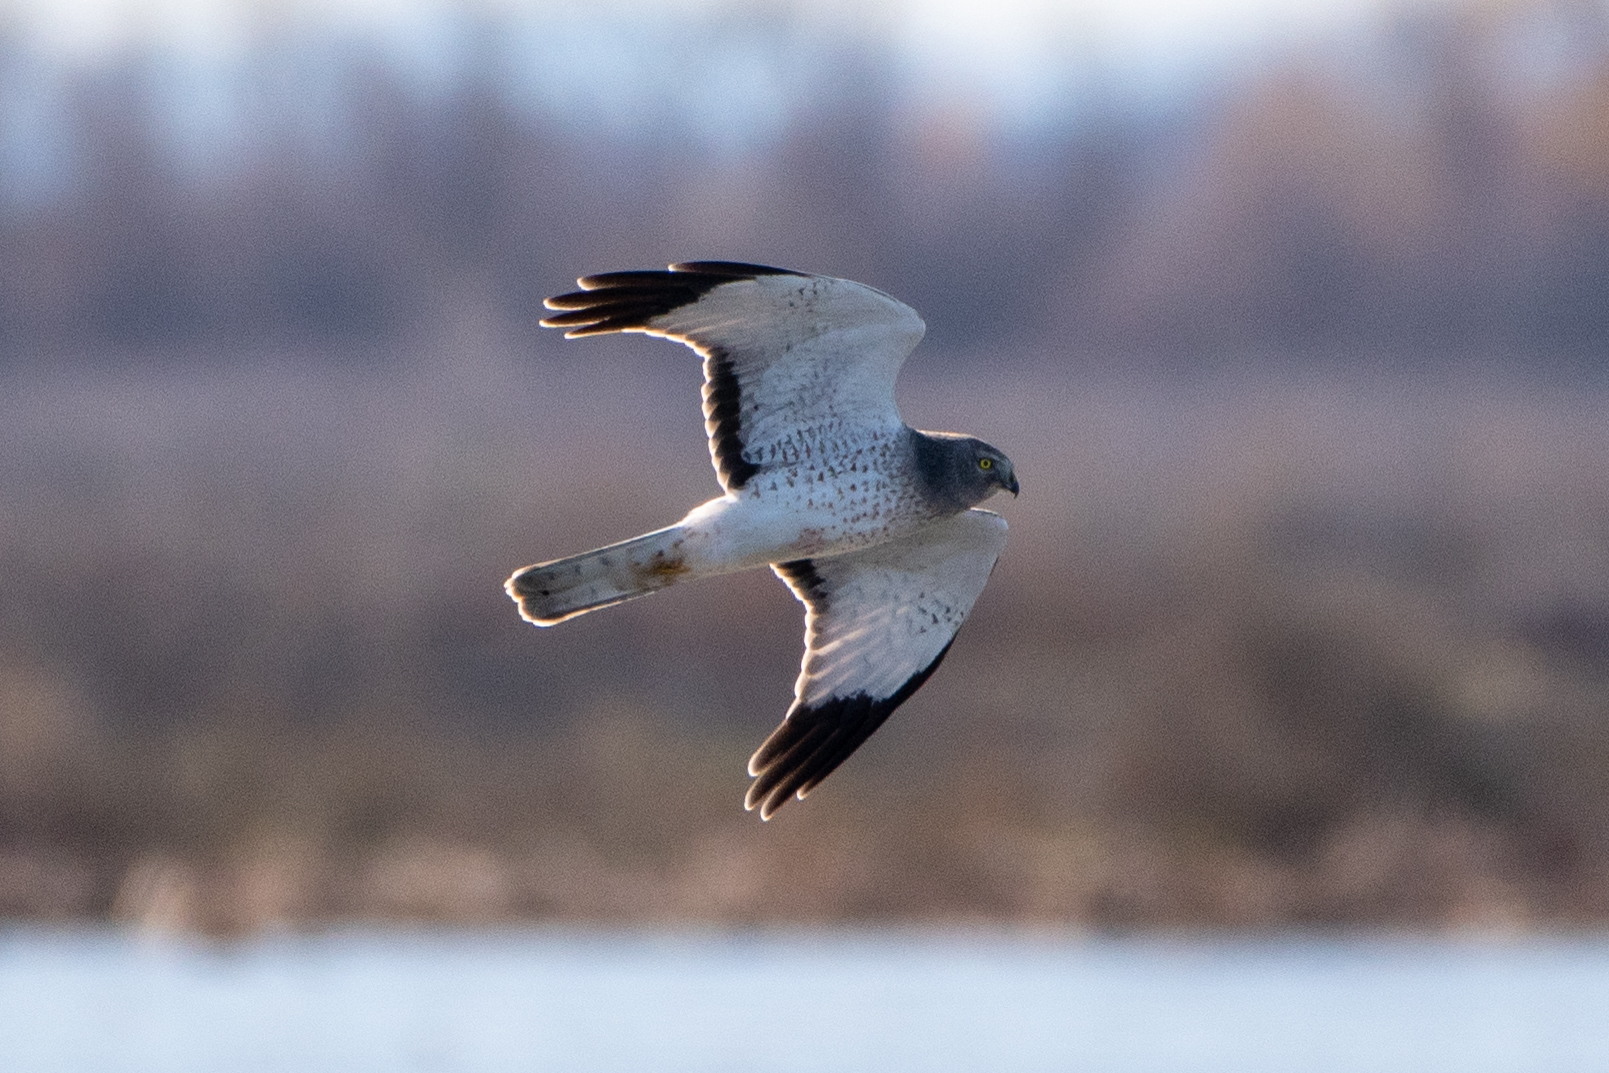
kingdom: Animalia
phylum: Chordata
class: Aves
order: Accipitriformes
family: Accipitridae
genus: Circus
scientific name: Circus cyaneus
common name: Hen harrier
